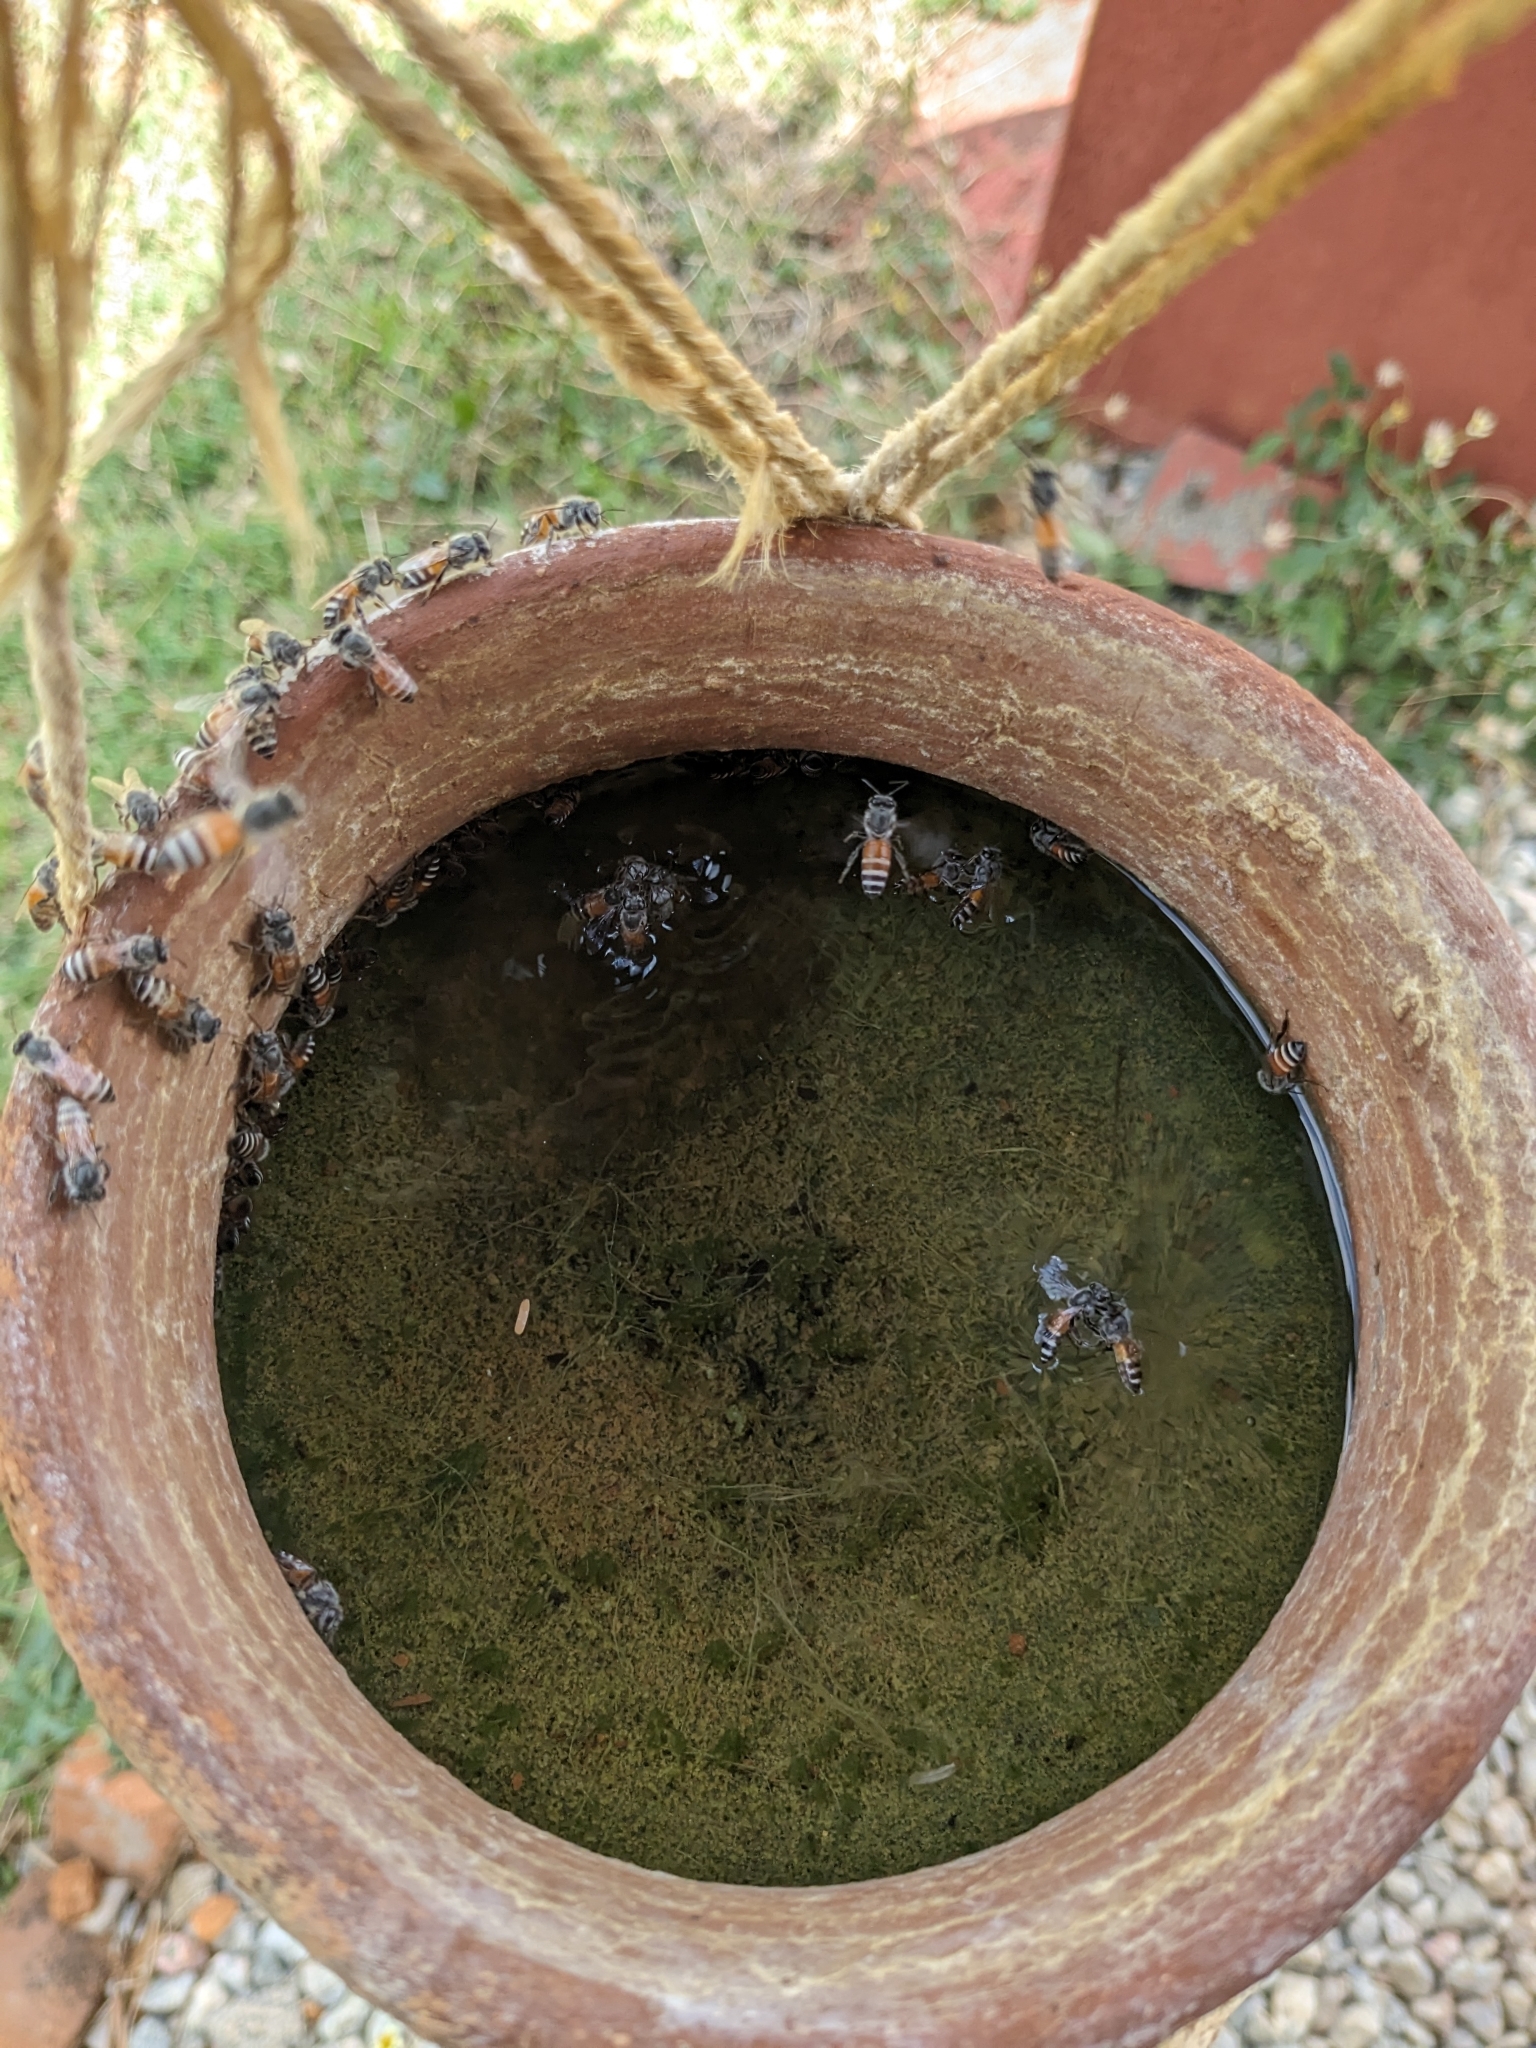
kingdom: Animalia
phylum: Arthropoda
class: Insecta
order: Hymenoptera
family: Apidae
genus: Apis
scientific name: Apis florea
